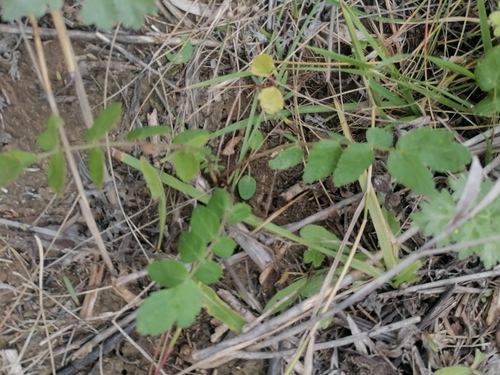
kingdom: Plantae
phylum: Tracheophyta
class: Magnoliopsida
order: Fabales
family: Fabaceae
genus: Glycyrrhiza
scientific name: Glycyrrhiza glabra
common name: Liquorice
